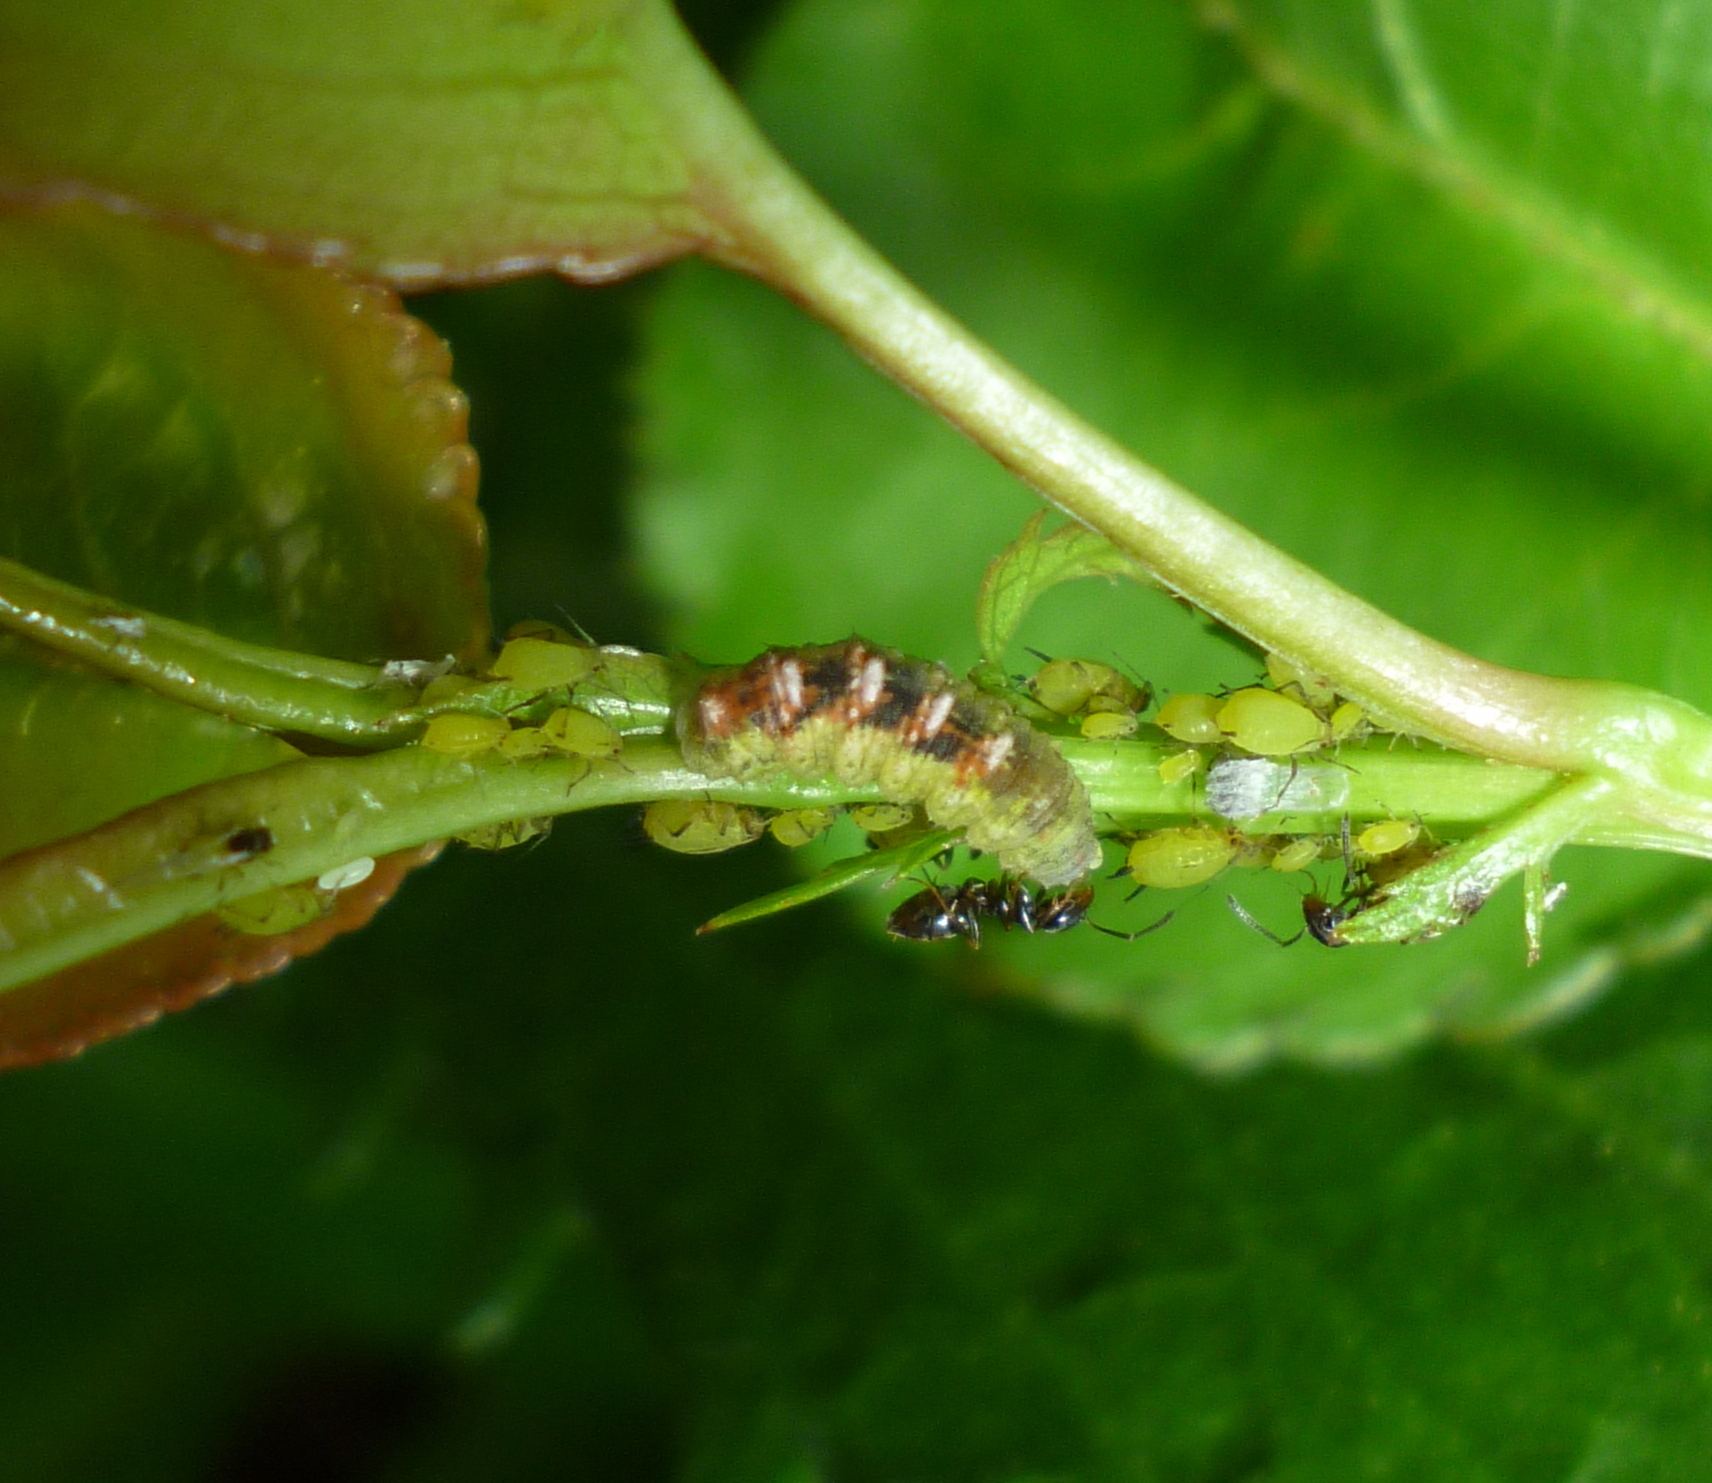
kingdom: Animalia
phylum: Arthropoda
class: Insecta
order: Diptera
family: Syrphidae
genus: Eupeodes
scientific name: Eupeodes pomus
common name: Short-tailed aphideater
